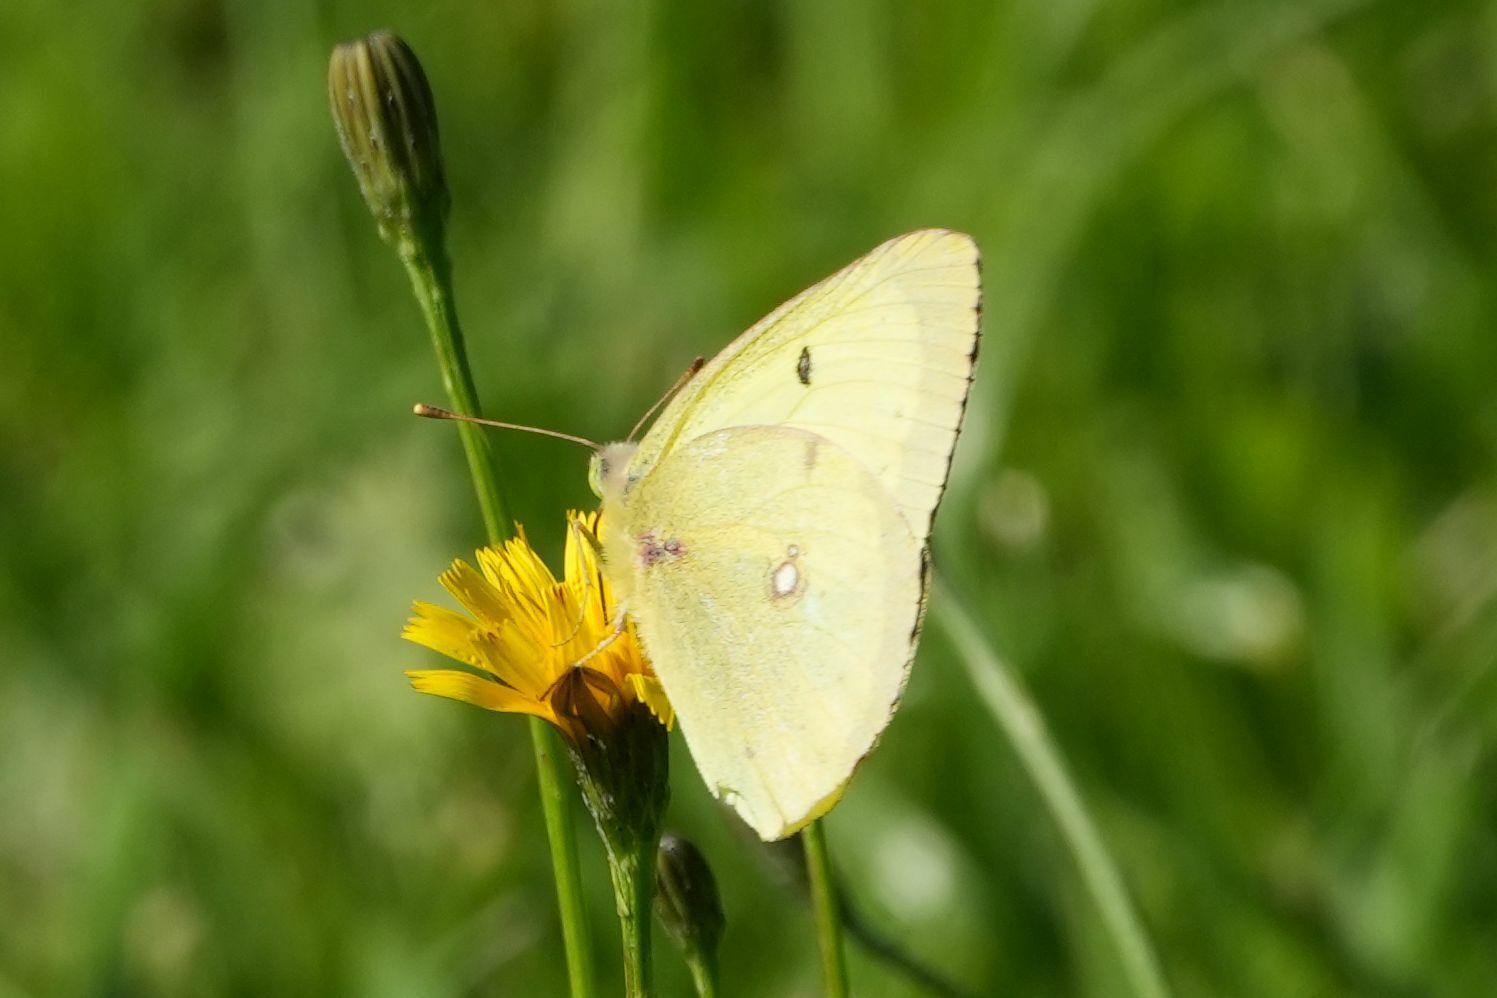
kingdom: Animalia
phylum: Arthropoda
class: Insecta
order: Lepidoptera
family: Pieridae
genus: Colias
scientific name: Colias philodice
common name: Clouded sulphur
